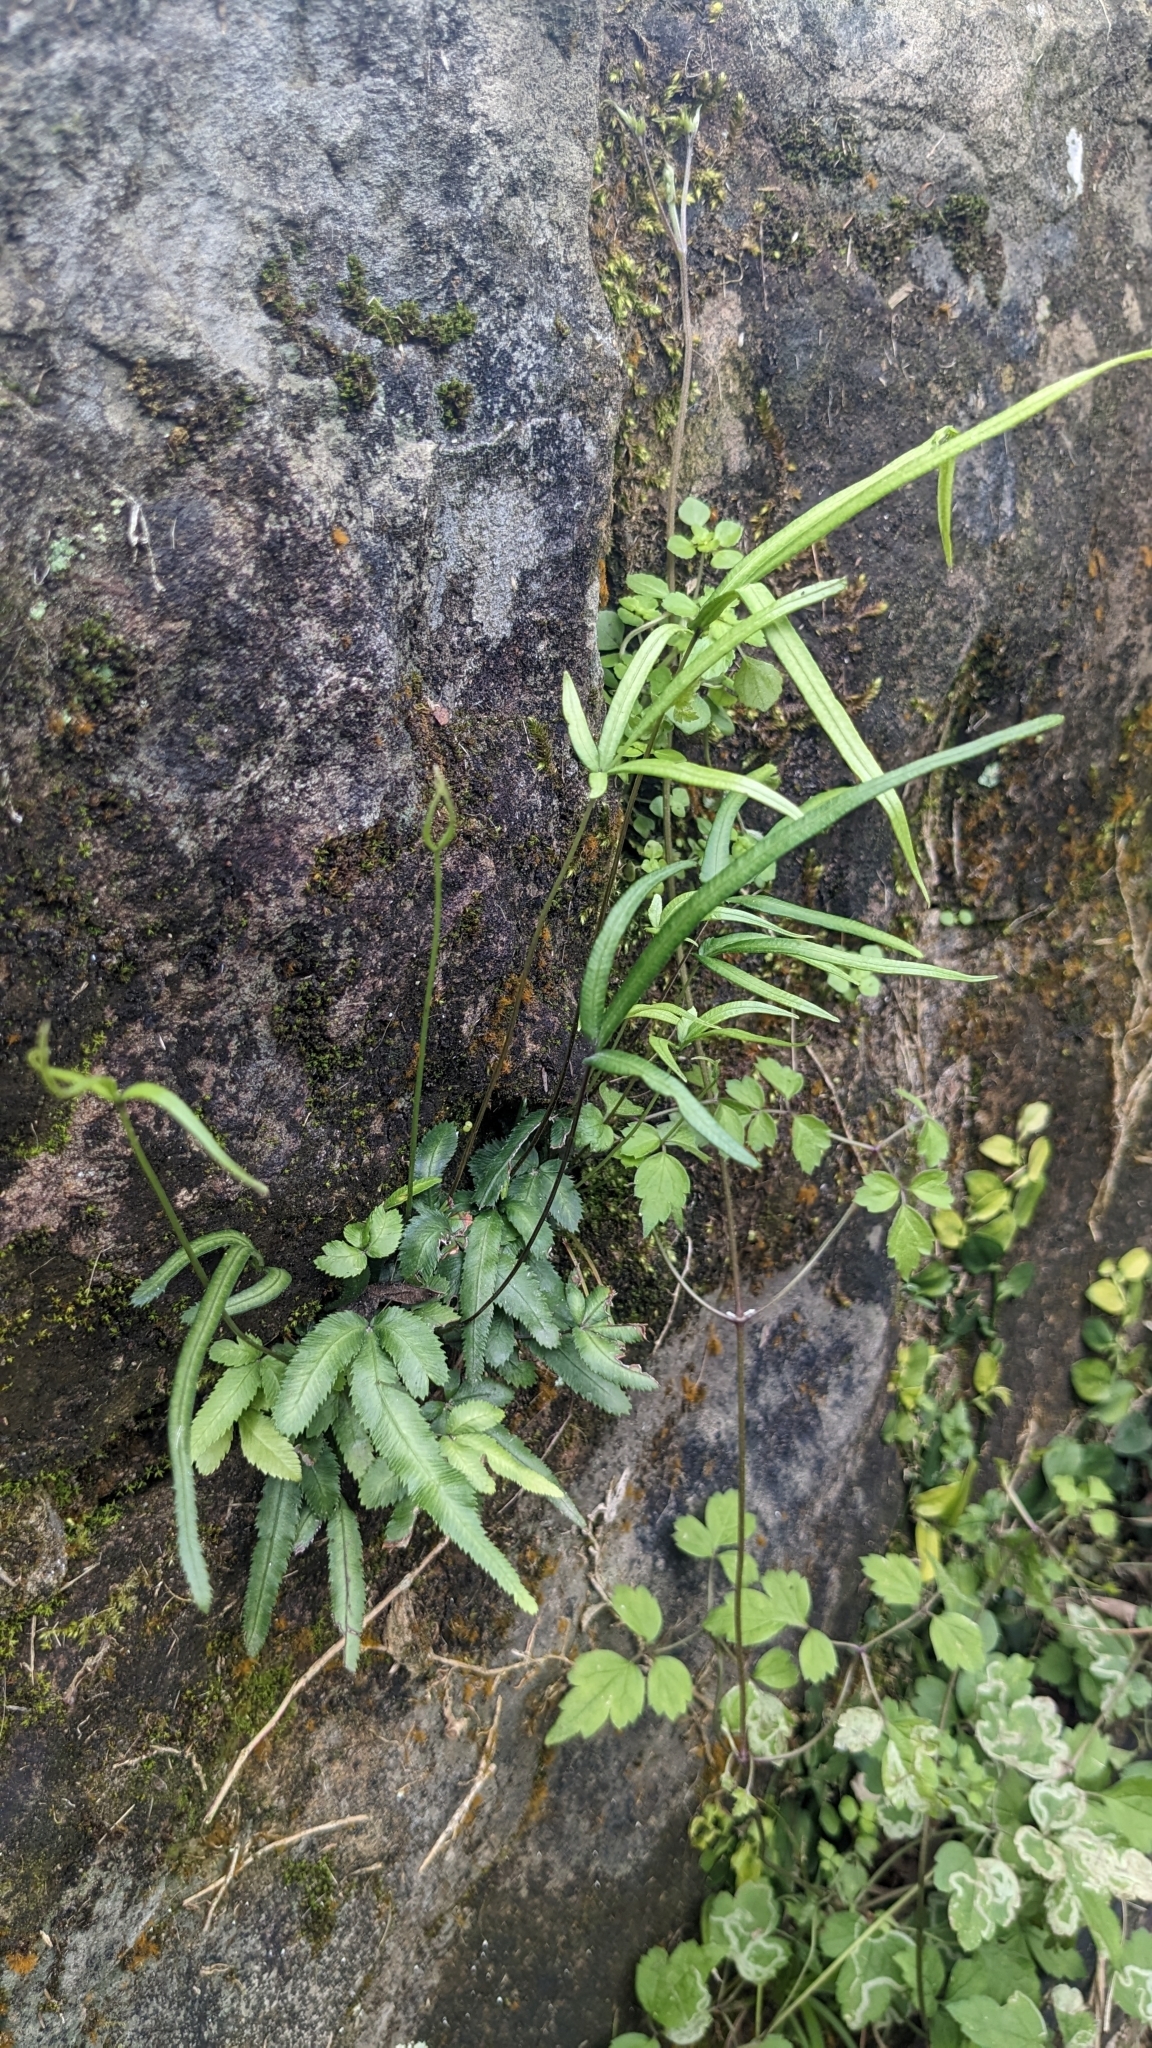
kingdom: Plantae
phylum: Tracheophyta
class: Polypodiopsida
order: Polypodiales
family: Pteridaceae
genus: Pteris
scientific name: Pteris ryukyuensis
